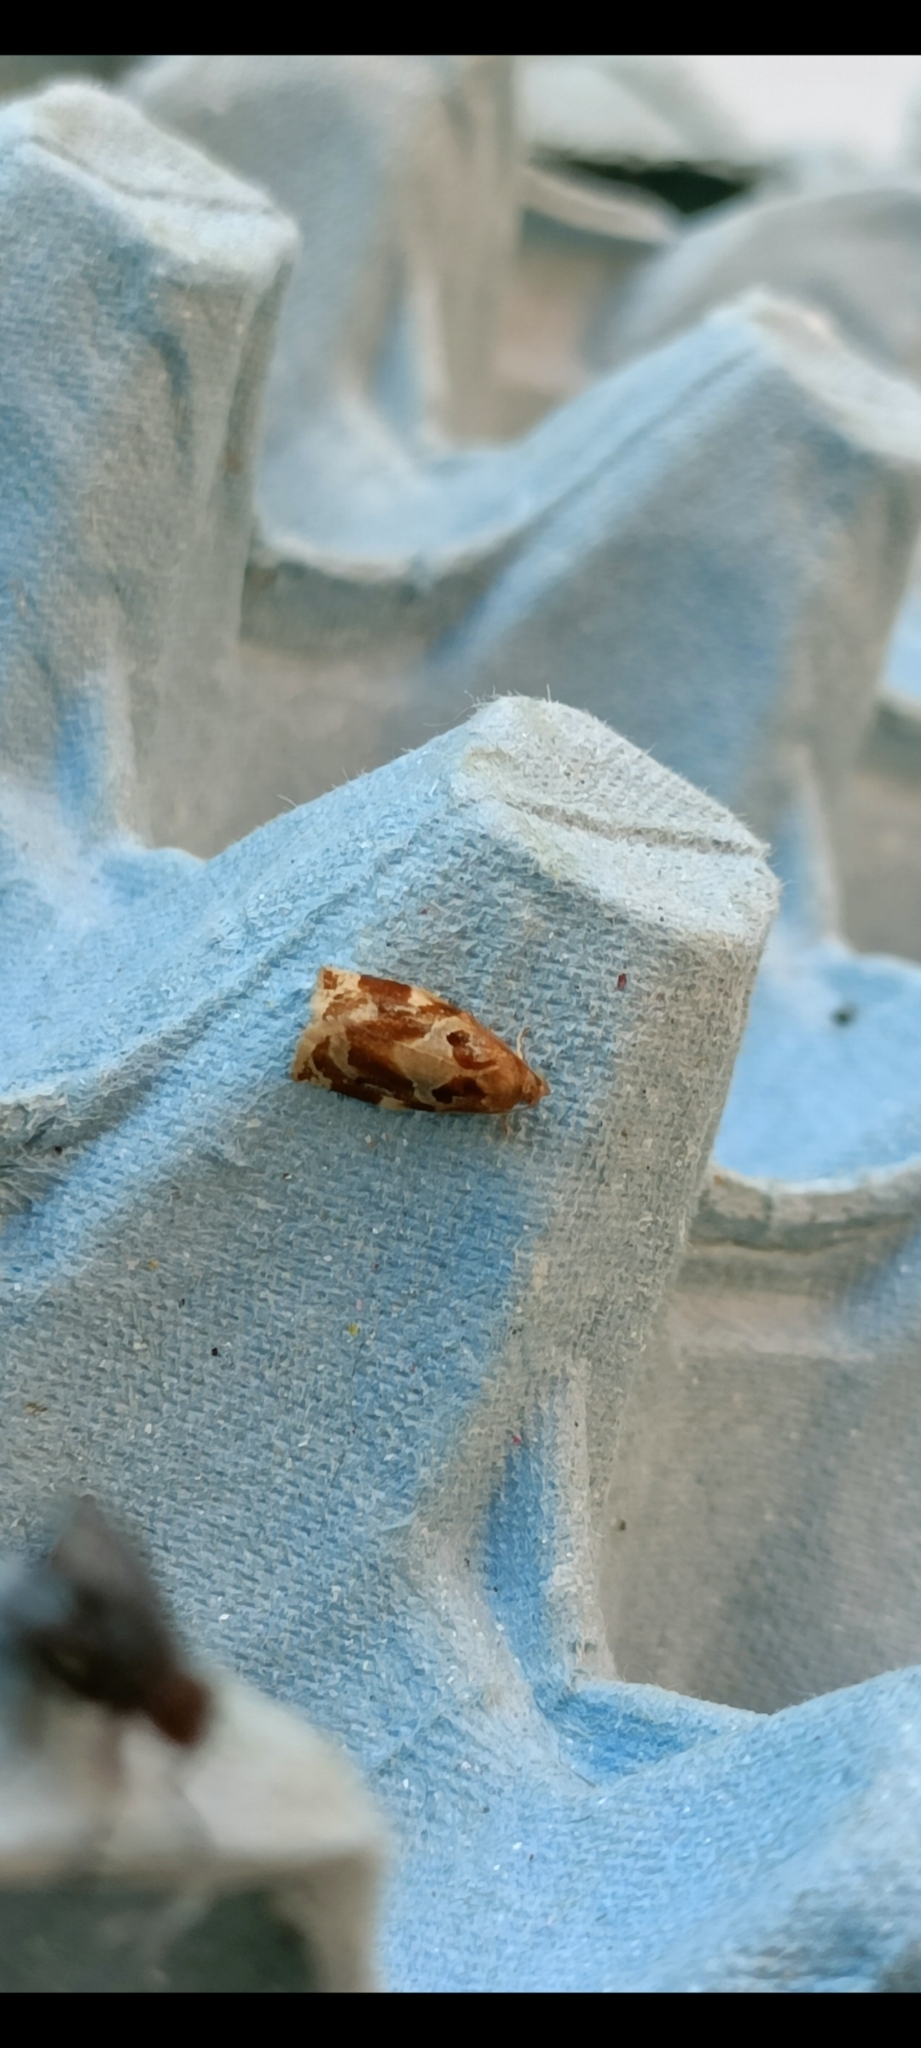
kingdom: Animalia
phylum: Arthropoda
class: Insecta
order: Lepidoptera
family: Tortricidae
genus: Archips
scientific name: Archips xylosteana
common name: Variegated golden tortrix
